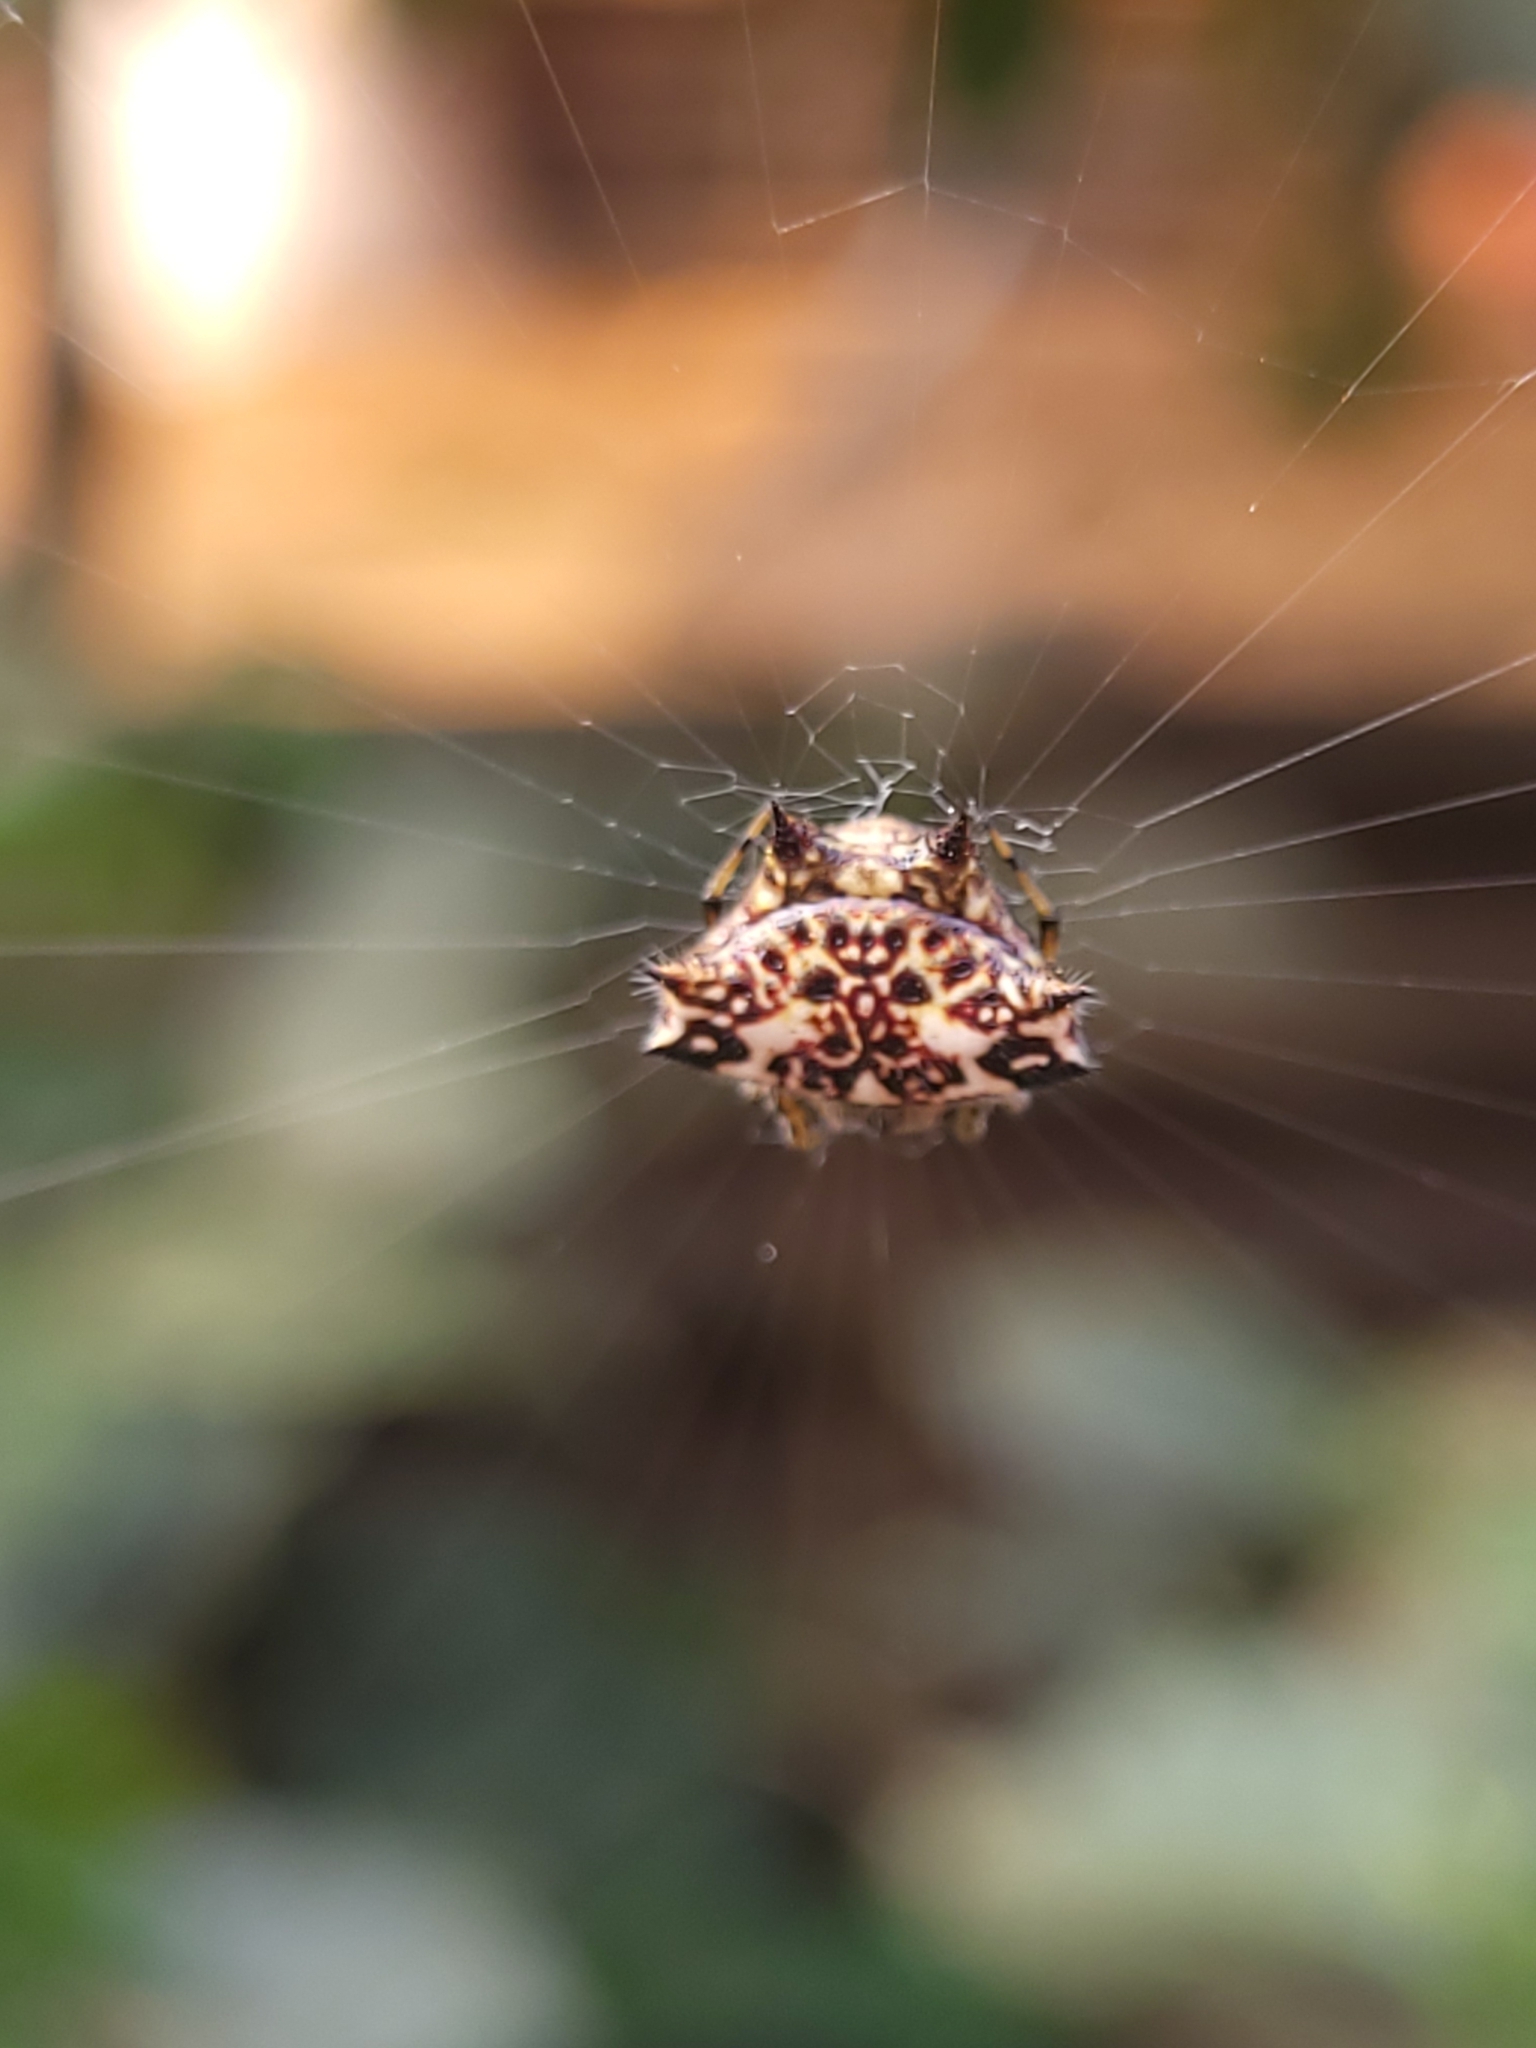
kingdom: Animalia
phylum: Arthropoda
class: Arachnida
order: Araneae
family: Araneidae
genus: Gasteracantha
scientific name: Gasteracantha kuhli
